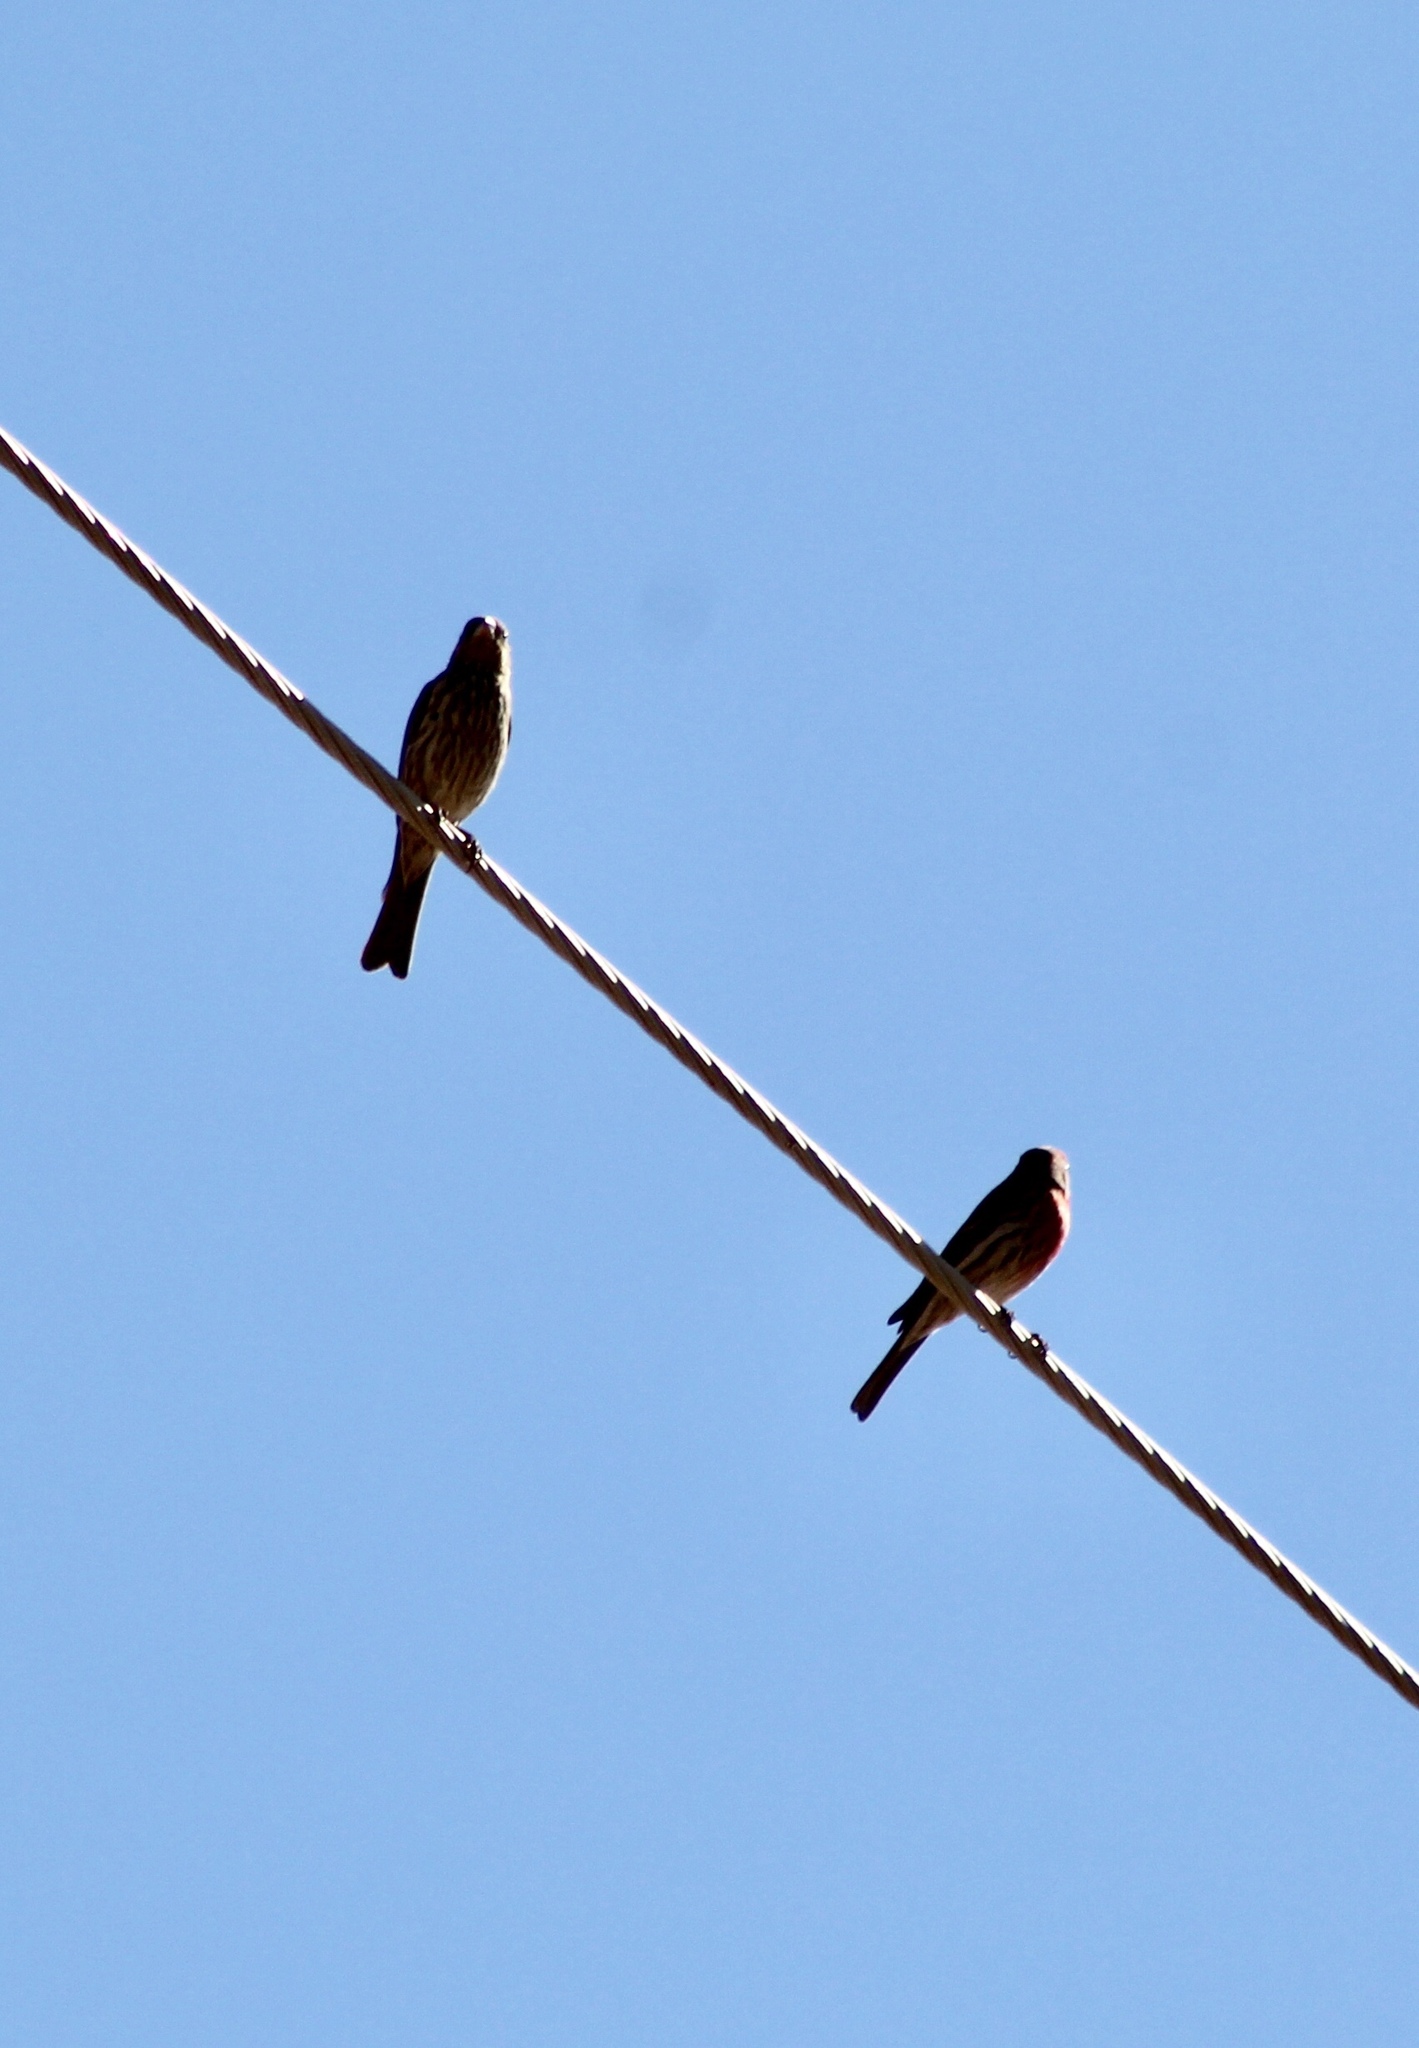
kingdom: Animalia
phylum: Chordata
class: Aves
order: Passeriformes
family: Fringillidae
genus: Haemorhous
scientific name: Haemorhous mexicanus
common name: House finch
